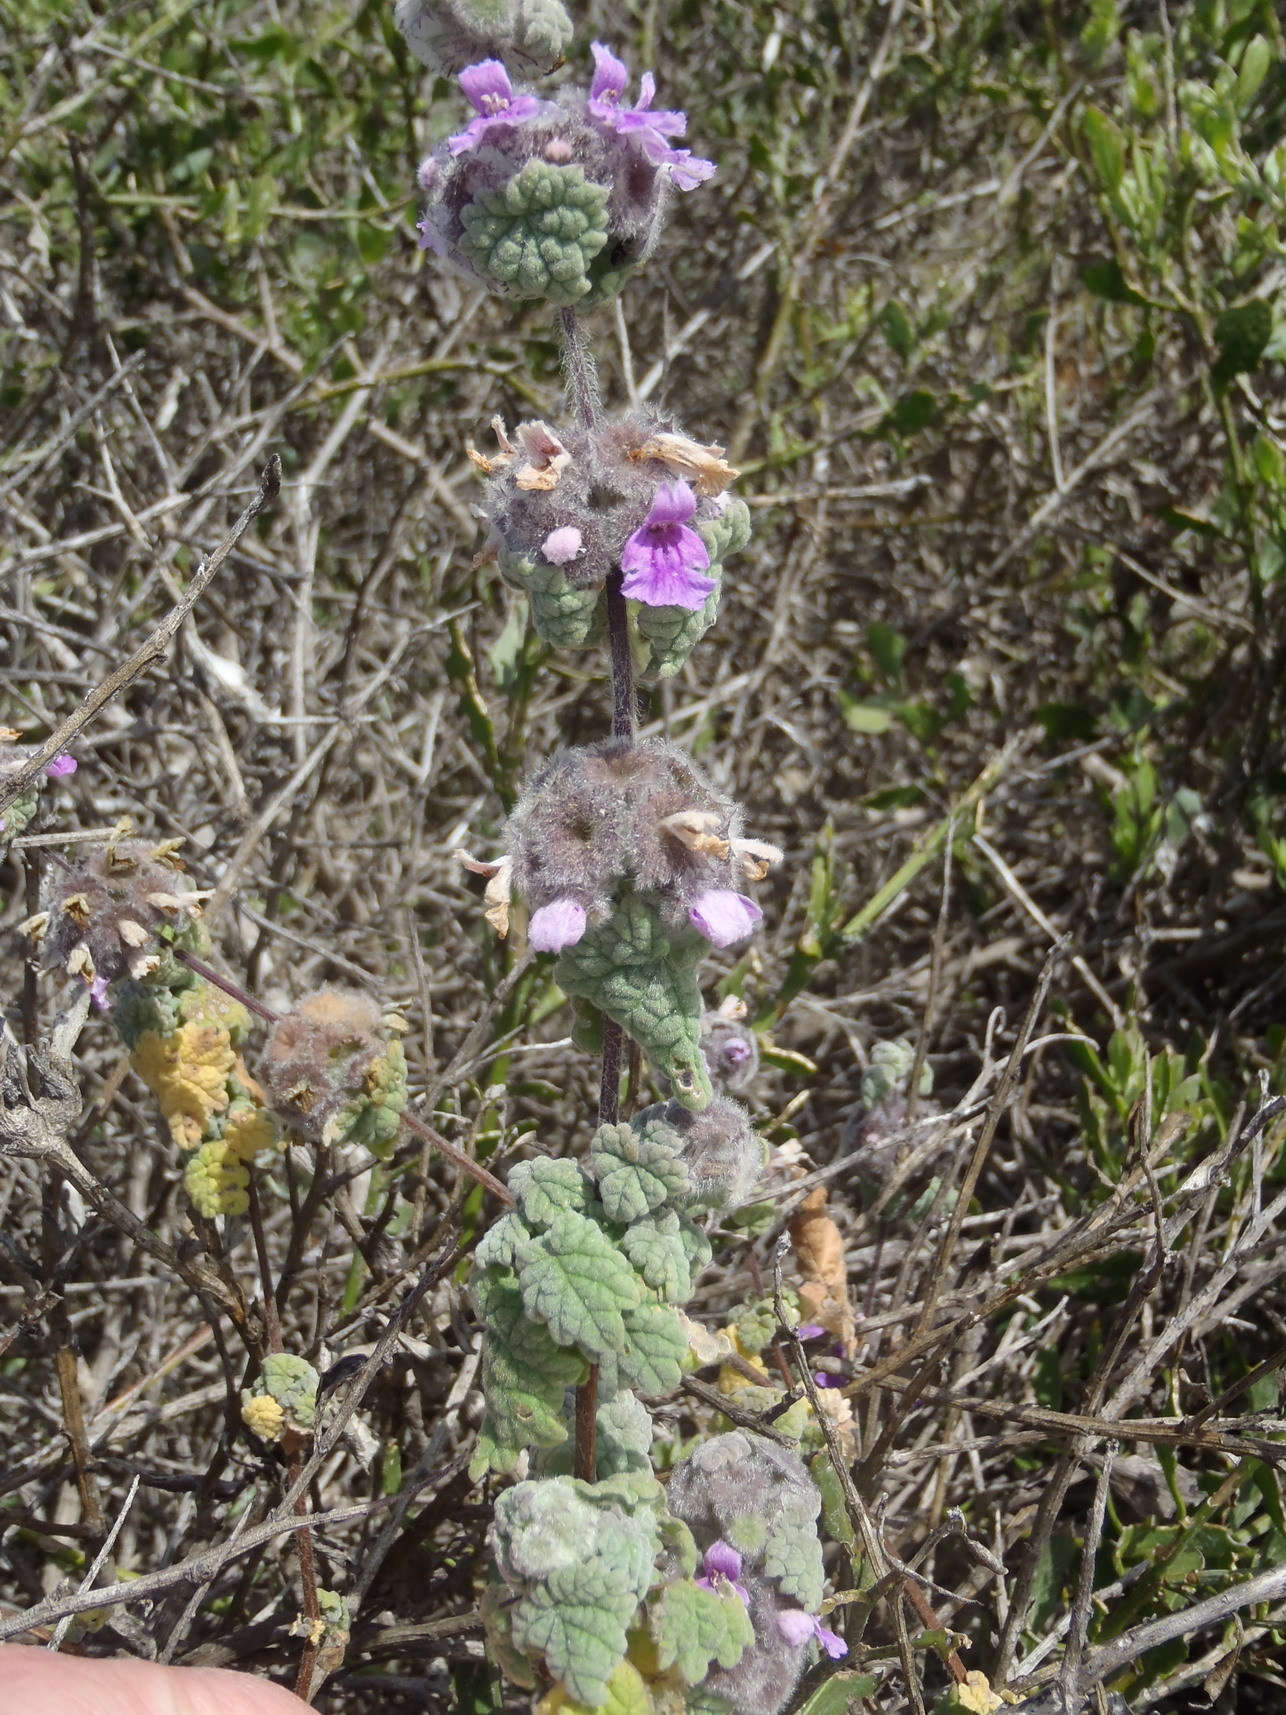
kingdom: Plantae
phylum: Tracheophyta
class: Magnoliopsida
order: Lamiales
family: Lamiaceae
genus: Pseudodictamnus
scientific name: Pseudodictamnus africanus
